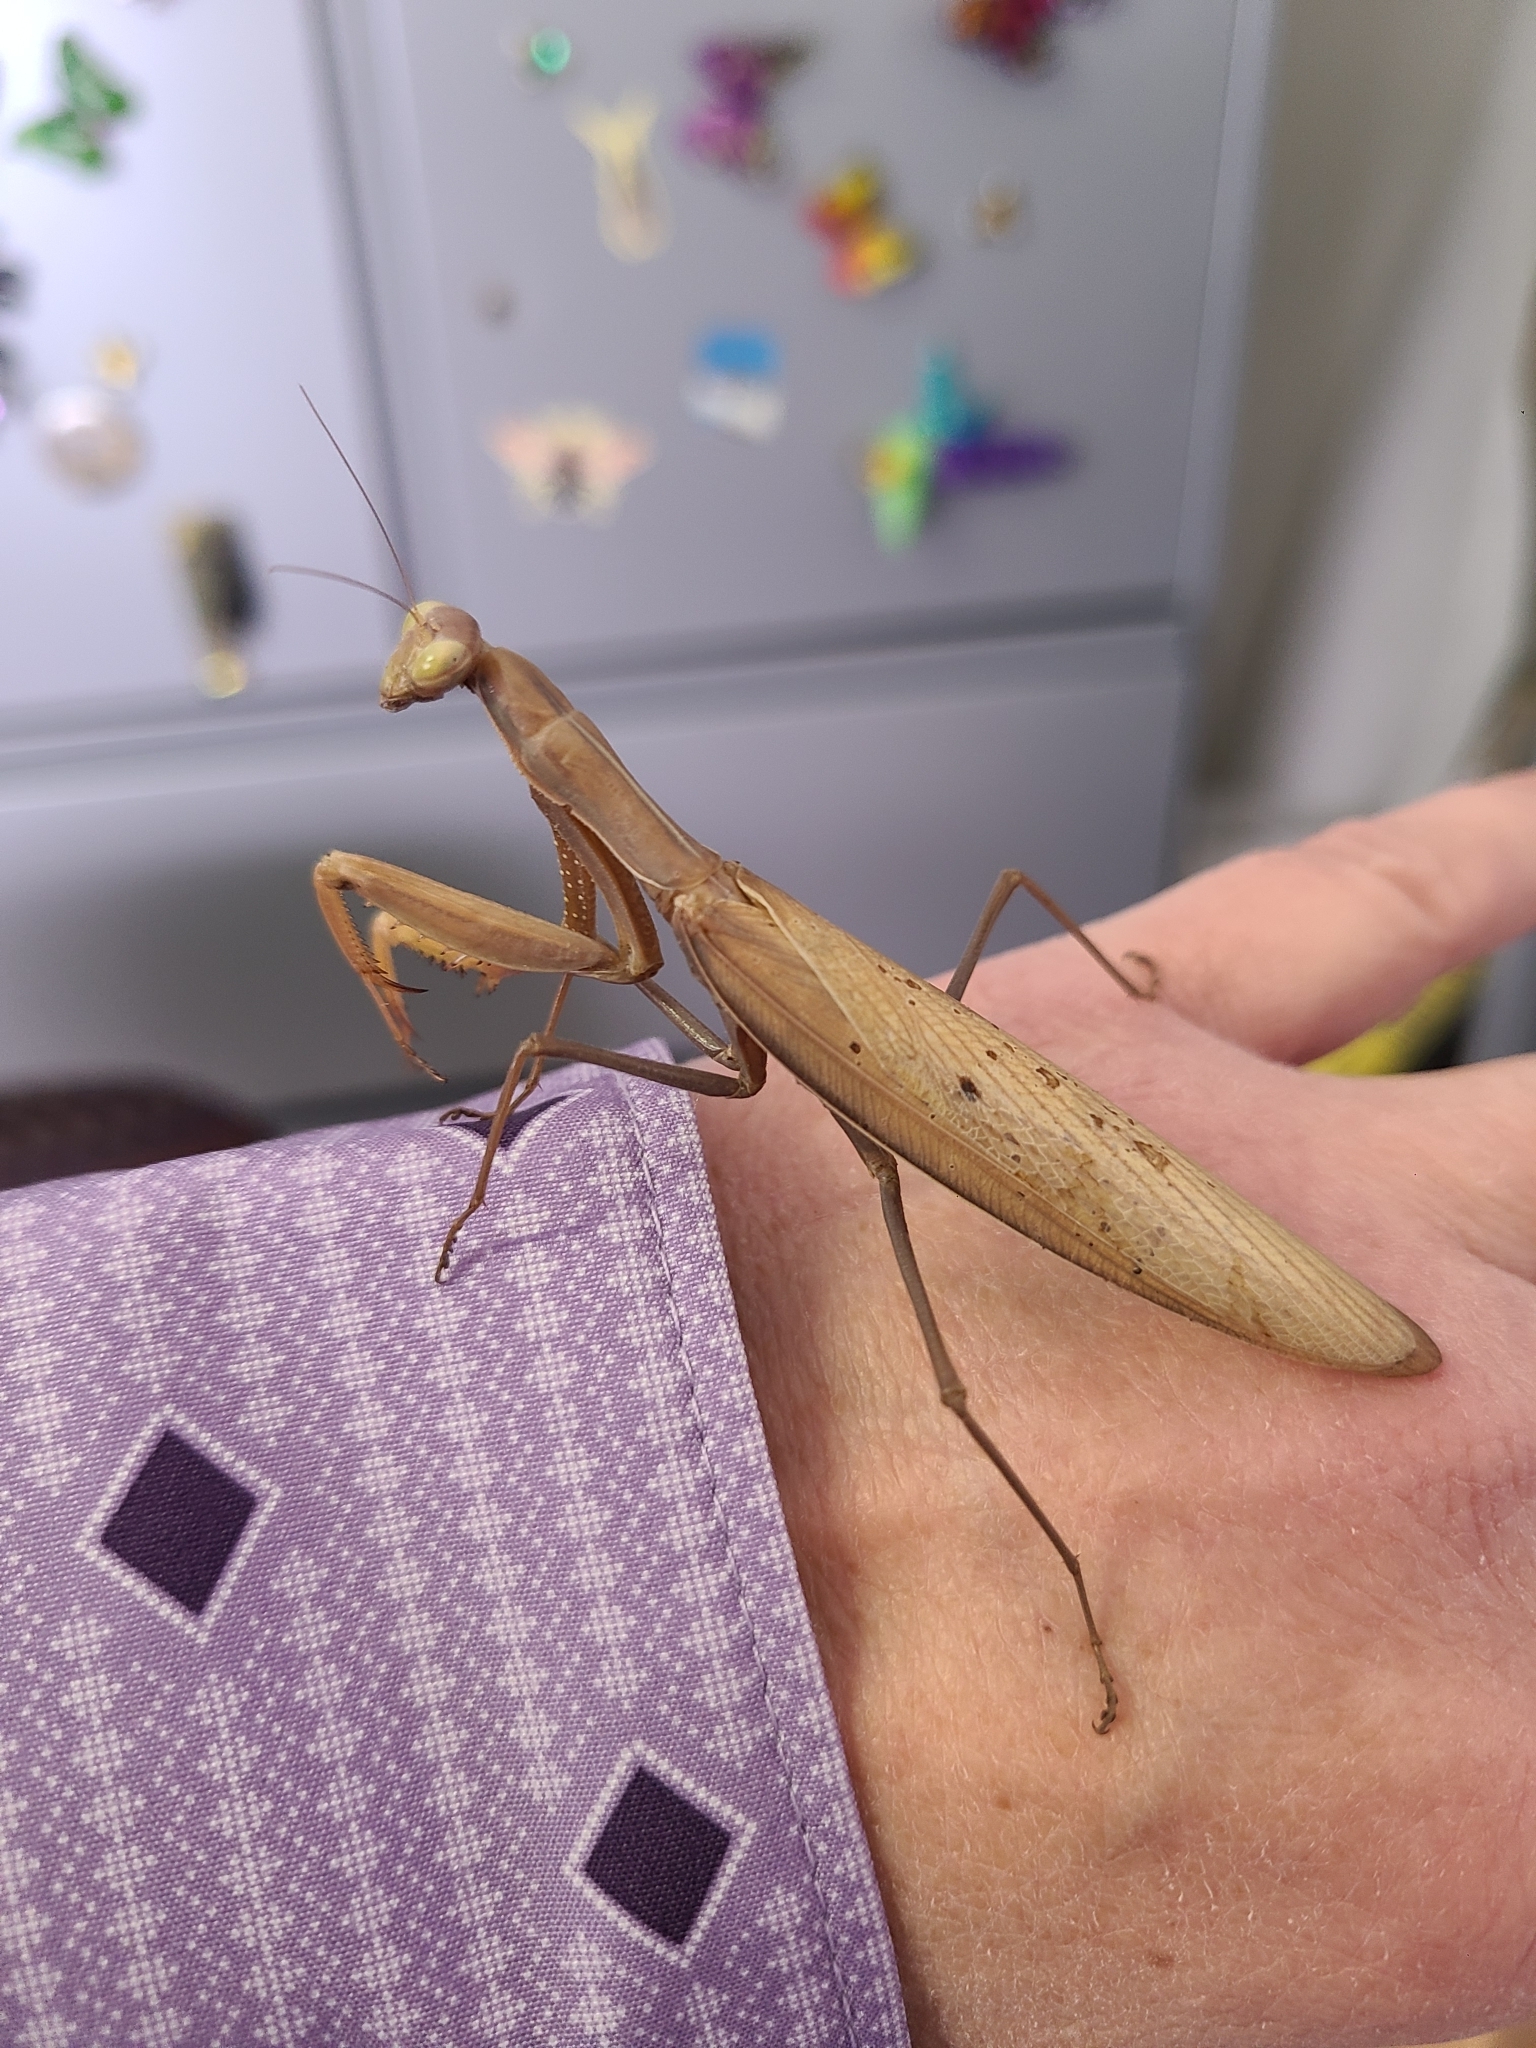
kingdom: Animalia
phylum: Arthropoda
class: Insecta
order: Mantodea
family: Mantidae
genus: Mantis
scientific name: Mantis religiosa
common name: Praying mantis
